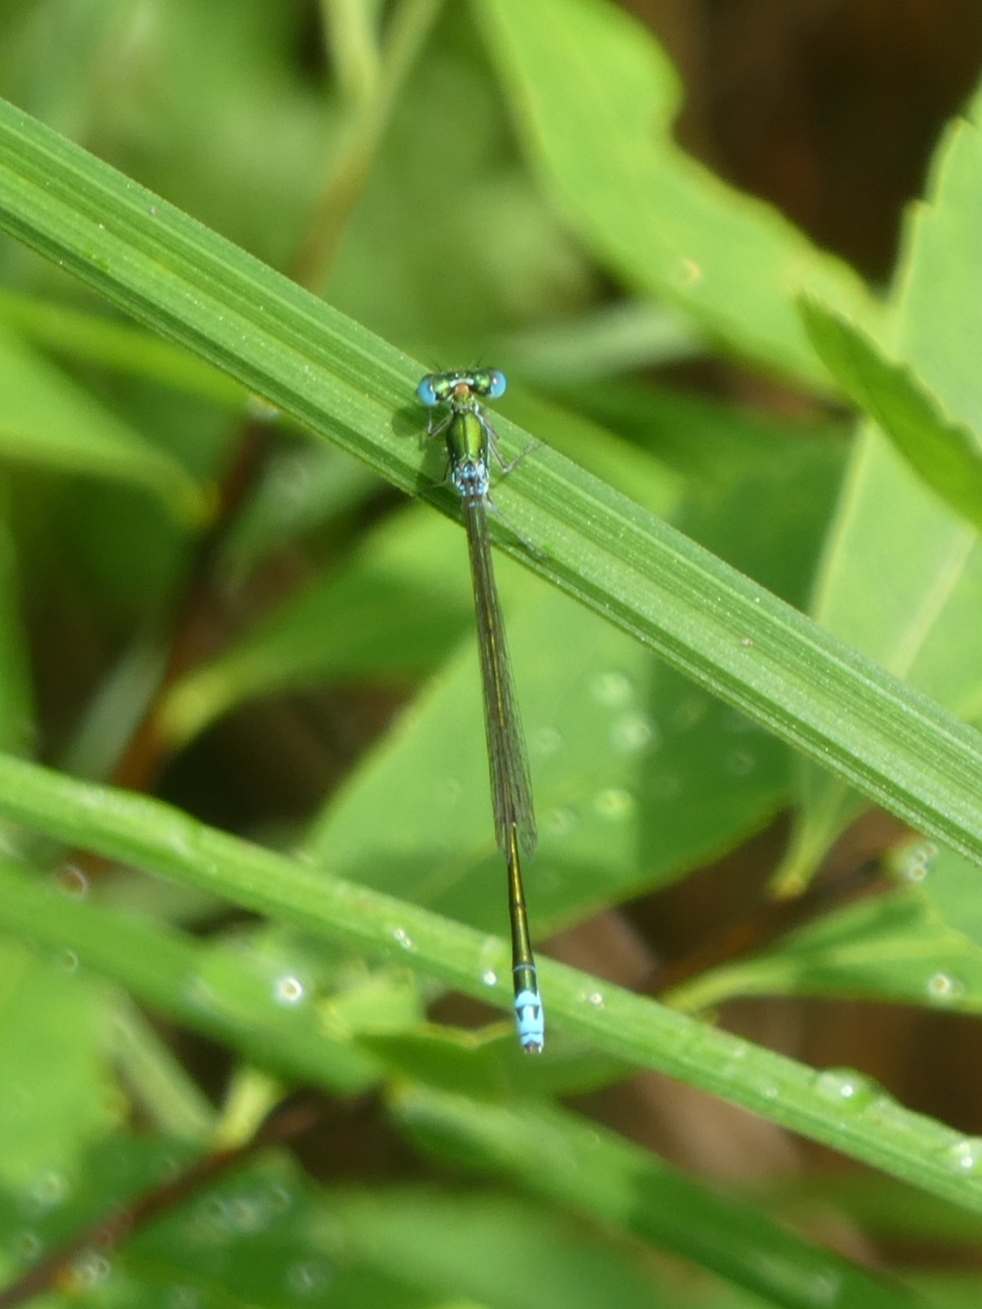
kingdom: Animalia
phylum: Arthropoda
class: Insecta
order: Odonata
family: Coenagrionidae
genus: Nehalennia
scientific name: Nehalennia irene
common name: Sedge sprite
